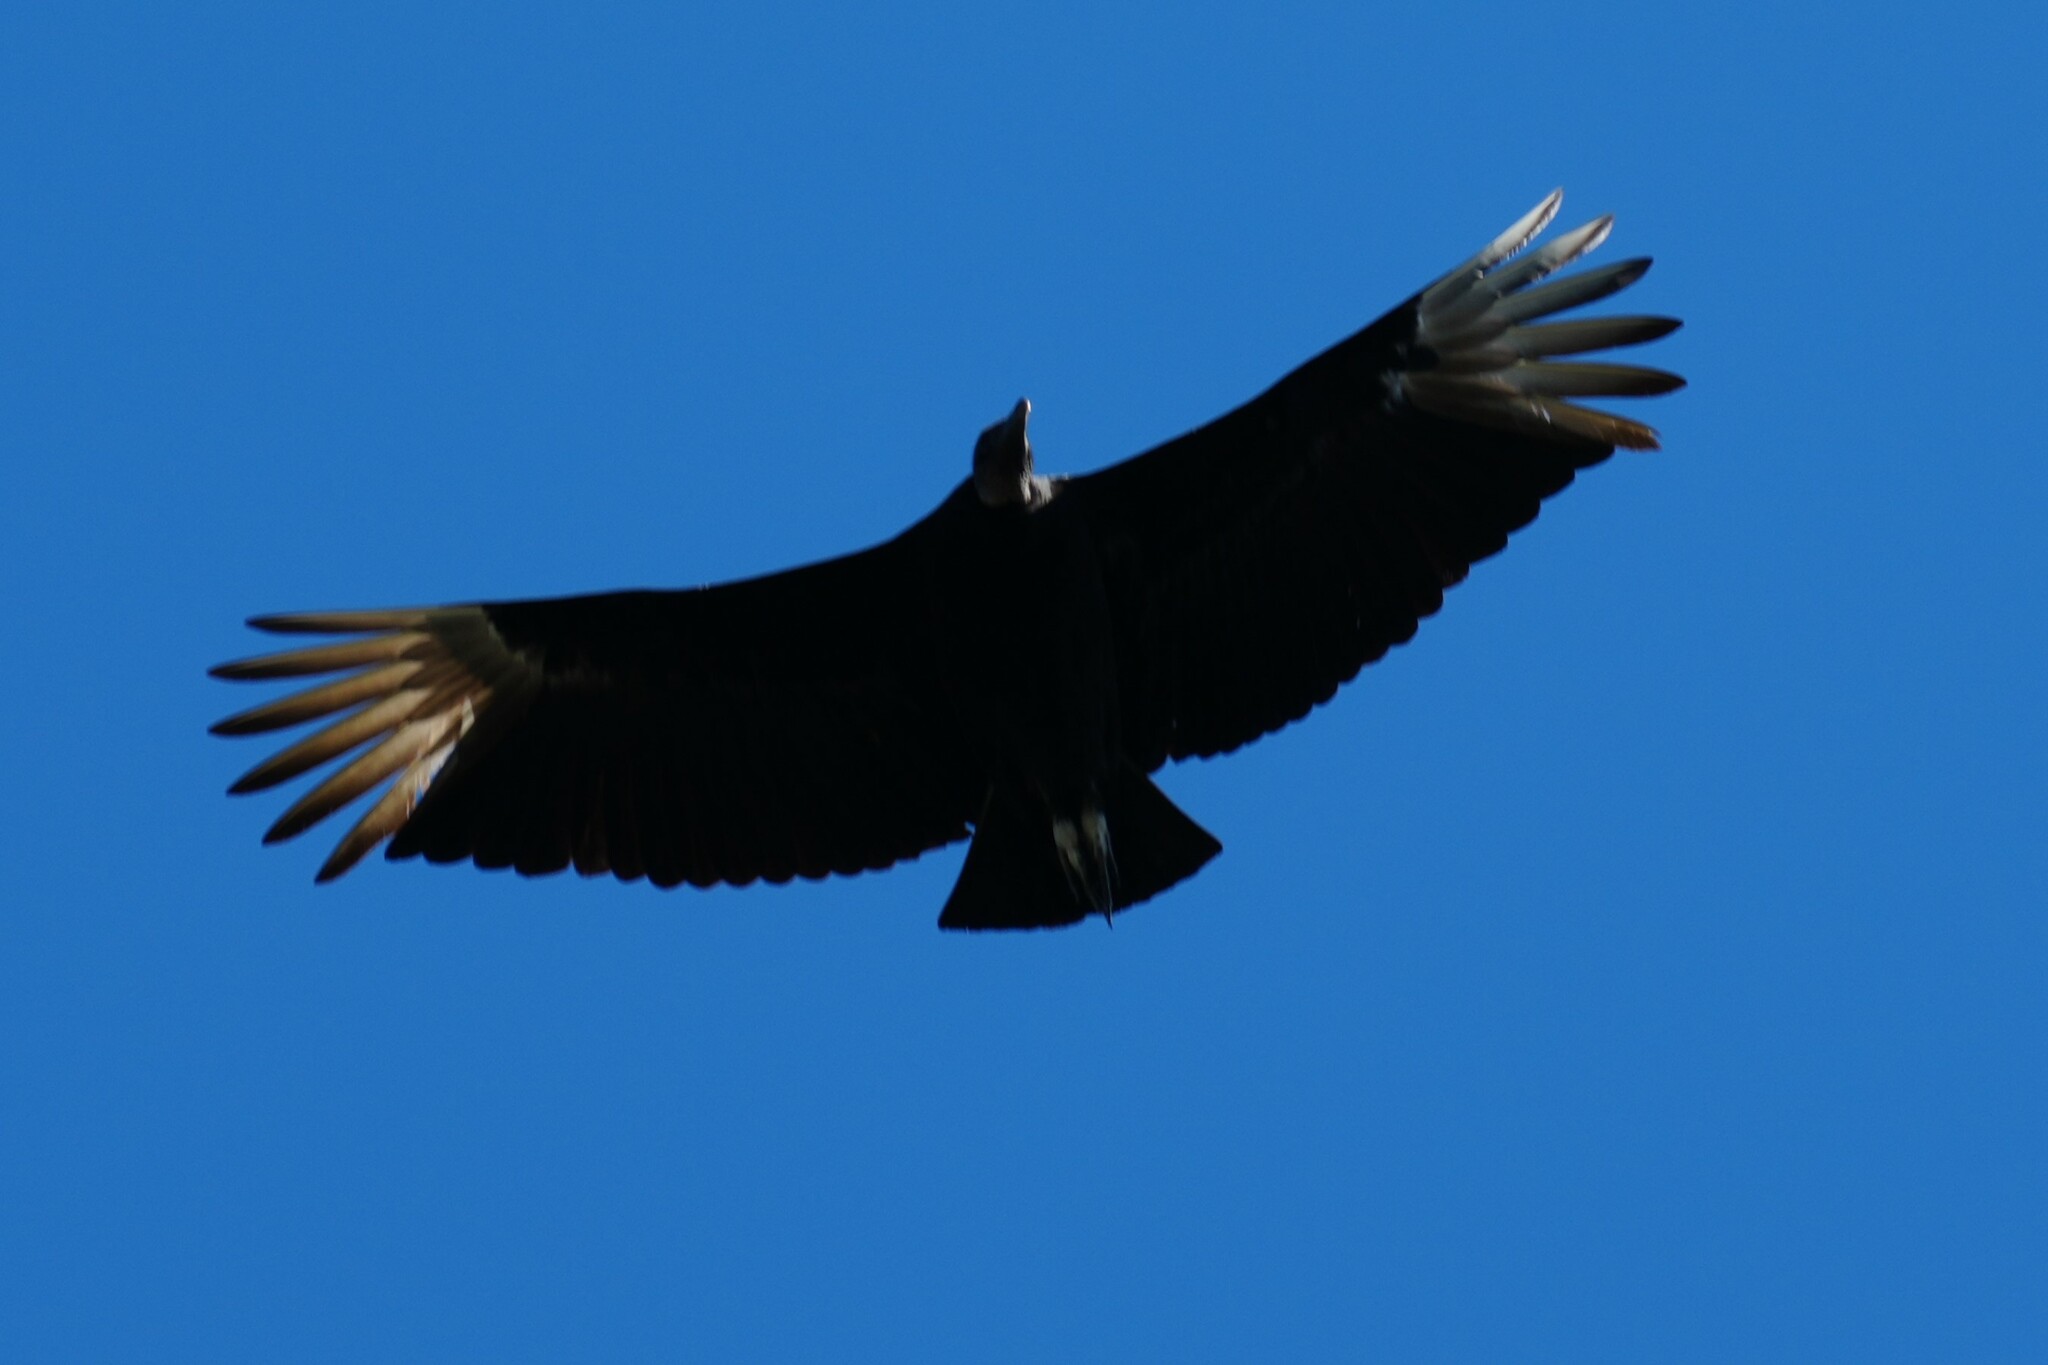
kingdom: Animalia
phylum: Chordata
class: Aves
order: Accipitriformes
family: Cathartidae
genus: Coragyps
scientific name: Coragyps atratus
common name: Black vulture
